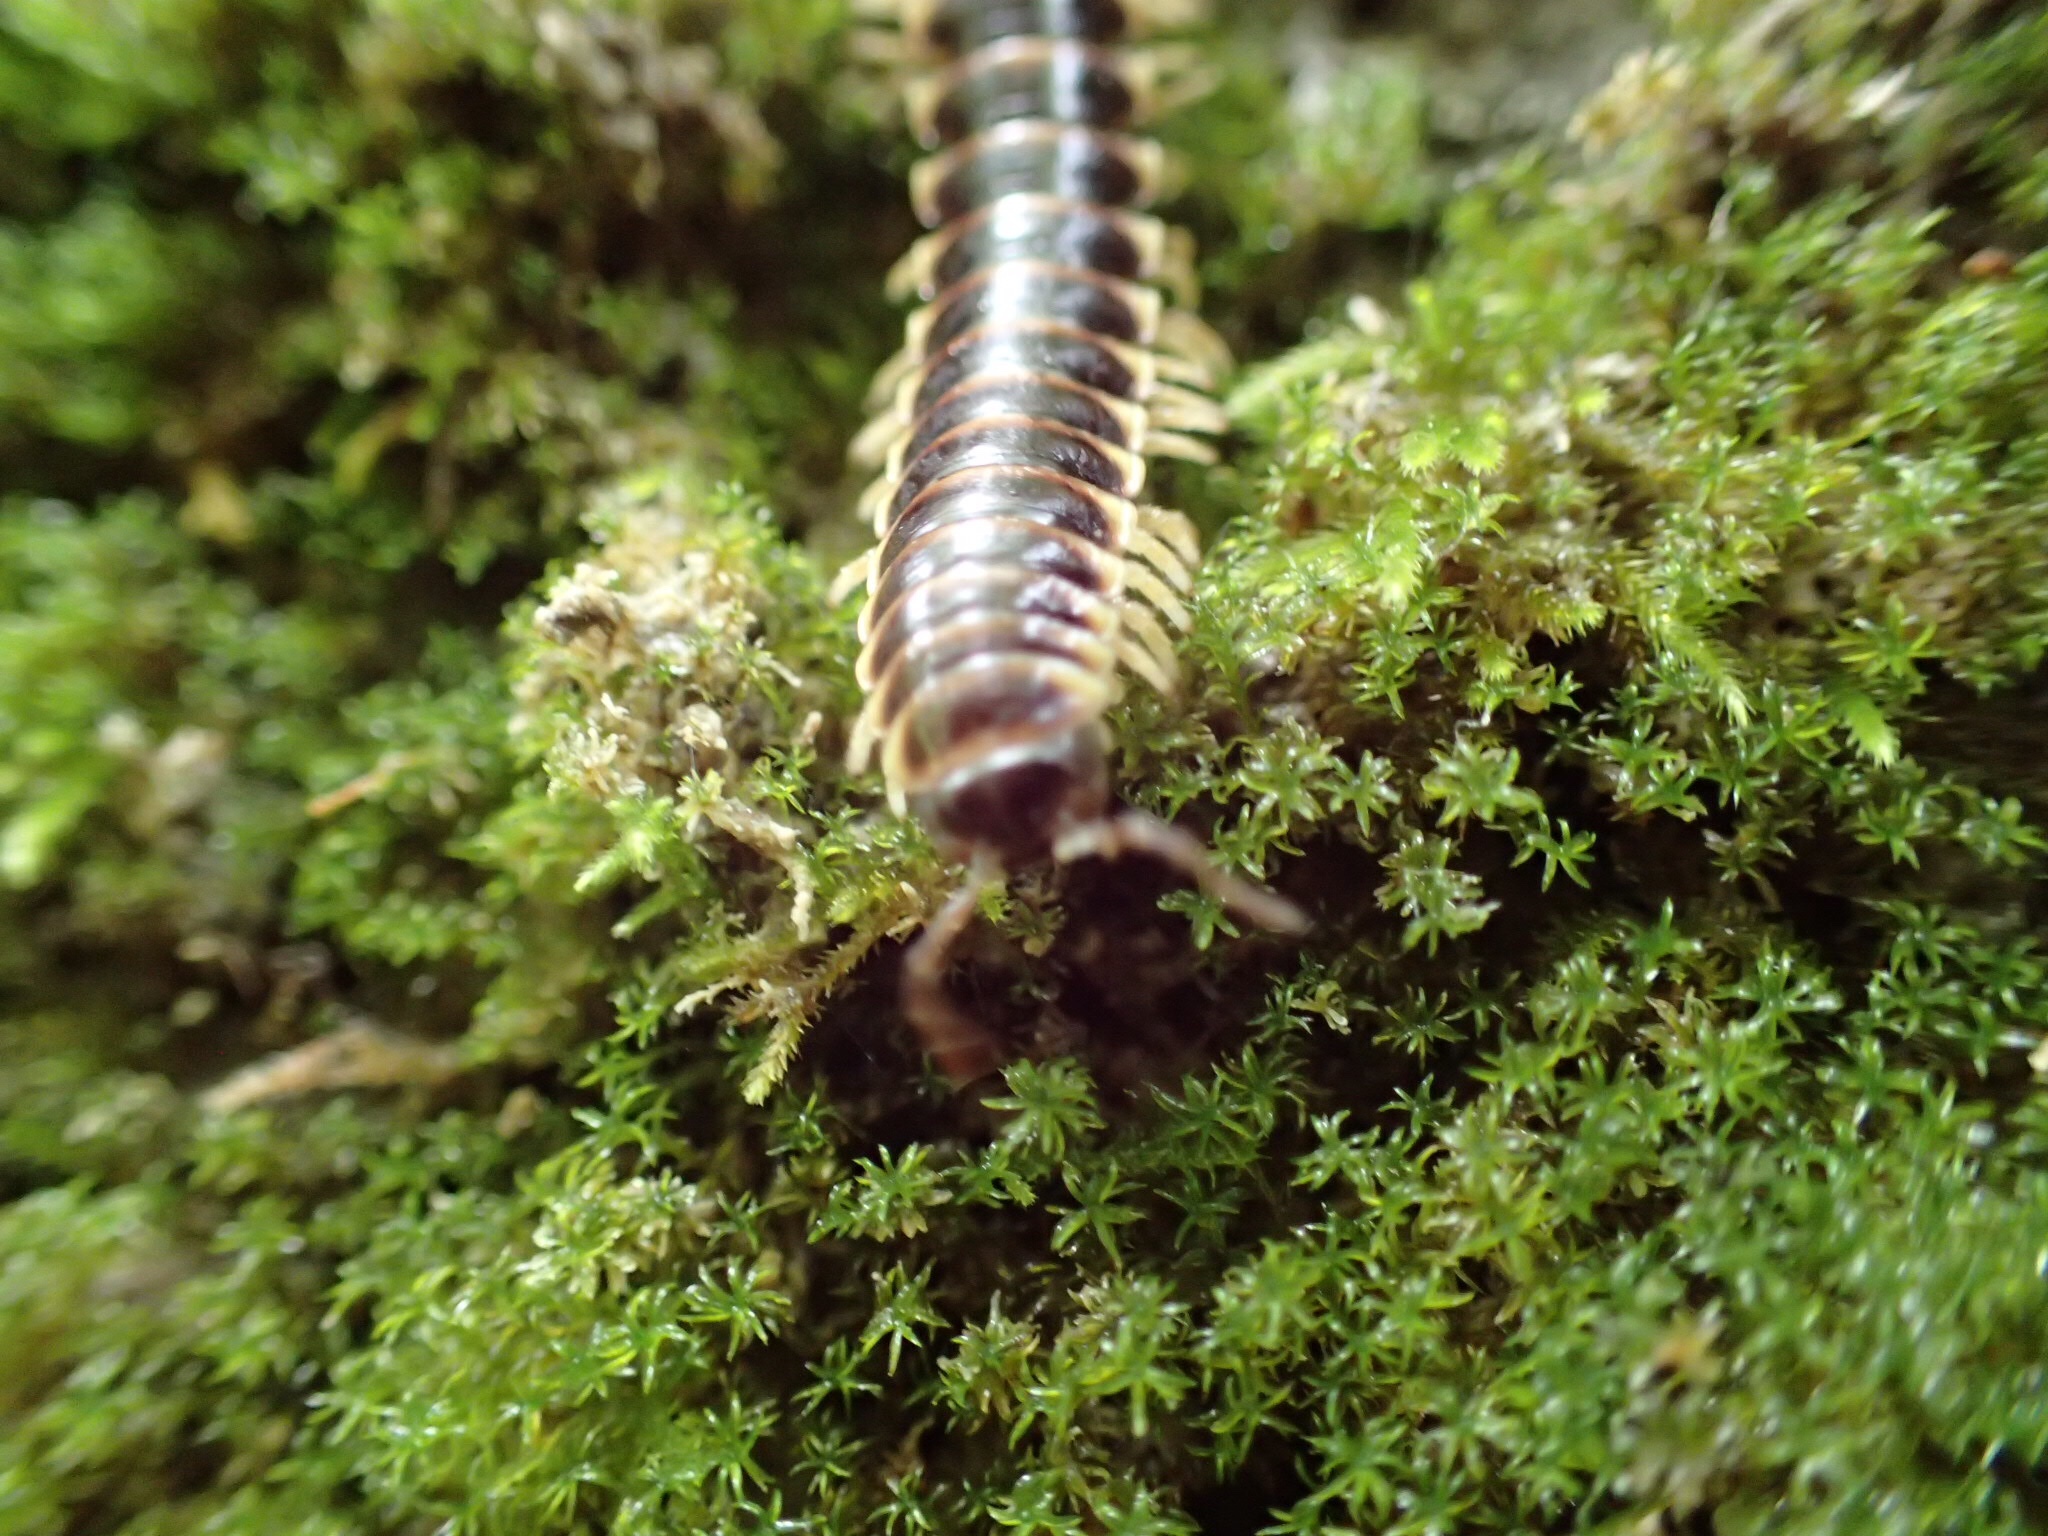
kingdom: Animalia
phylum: Arthropoda
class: Diplopoda
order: Polydesmida
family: Xystodesmidae
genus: Pleuroloma
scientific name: Pleuroloma flavipes
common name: Yellow-legged pleuroloma
